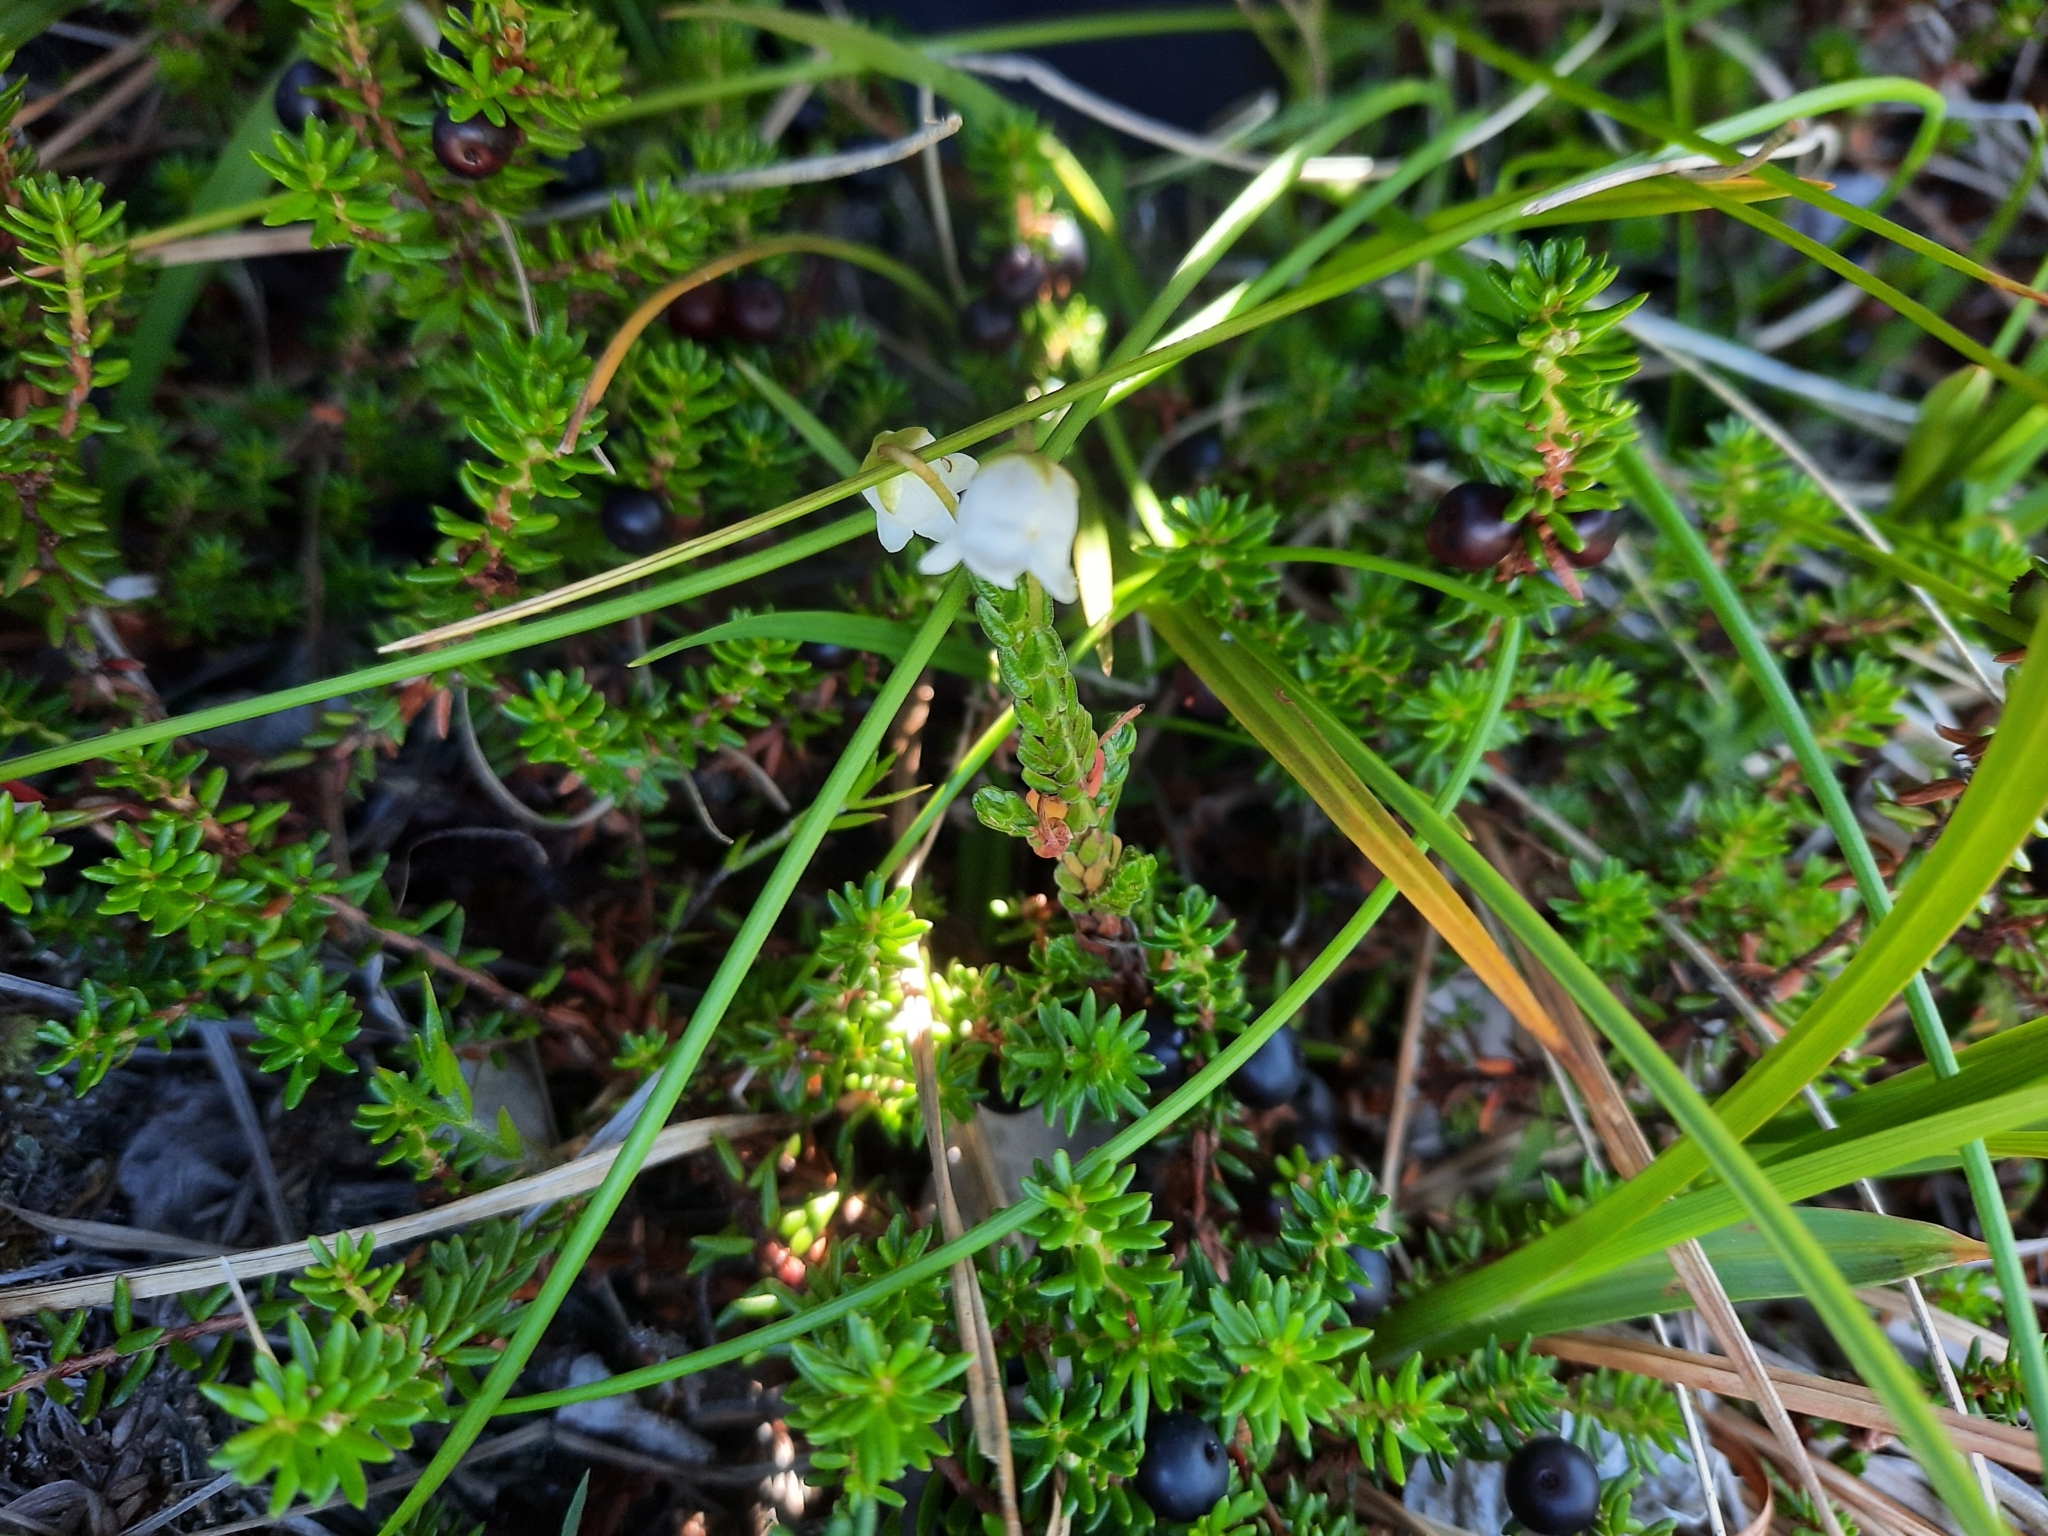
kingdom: Plantae
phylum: Tracheophyta
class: Magnoliopsida
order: Ericales
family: Ericaceae
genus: Empetrum
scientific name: Empetrum nigrum
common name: Black crowberry
